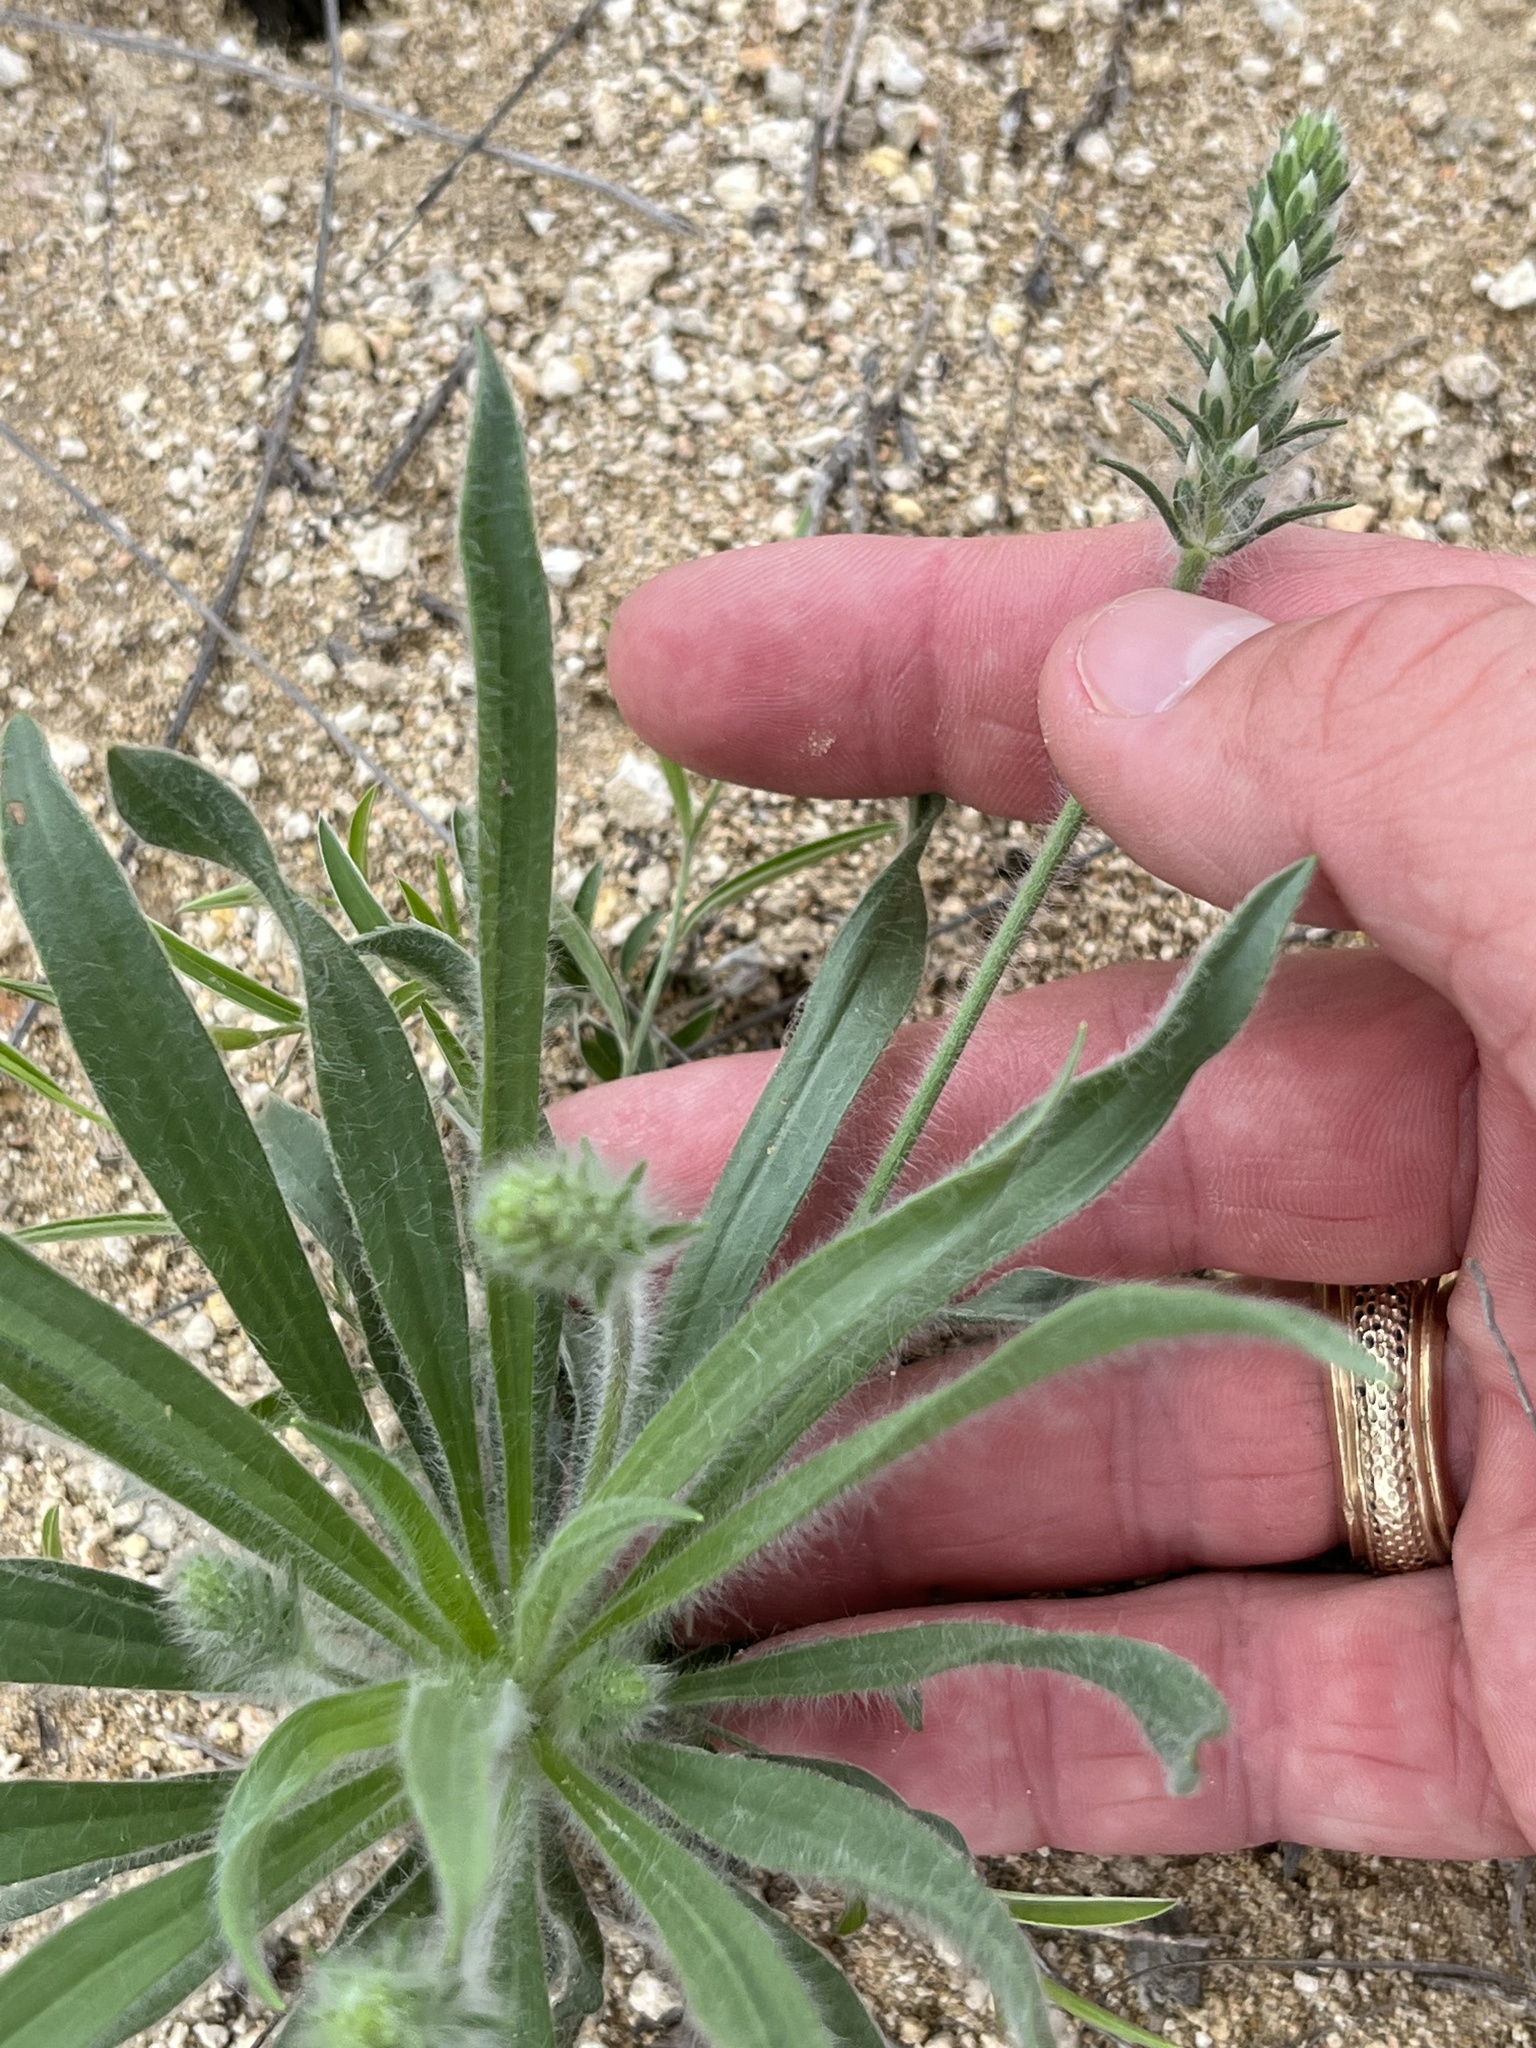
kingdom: Plantae
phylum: Tracheophyta
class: Magnoliopsida
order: Lamiales
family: Plantaginaceae
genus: Plantago
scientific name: Plantago helleri
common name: Heller's plantain
